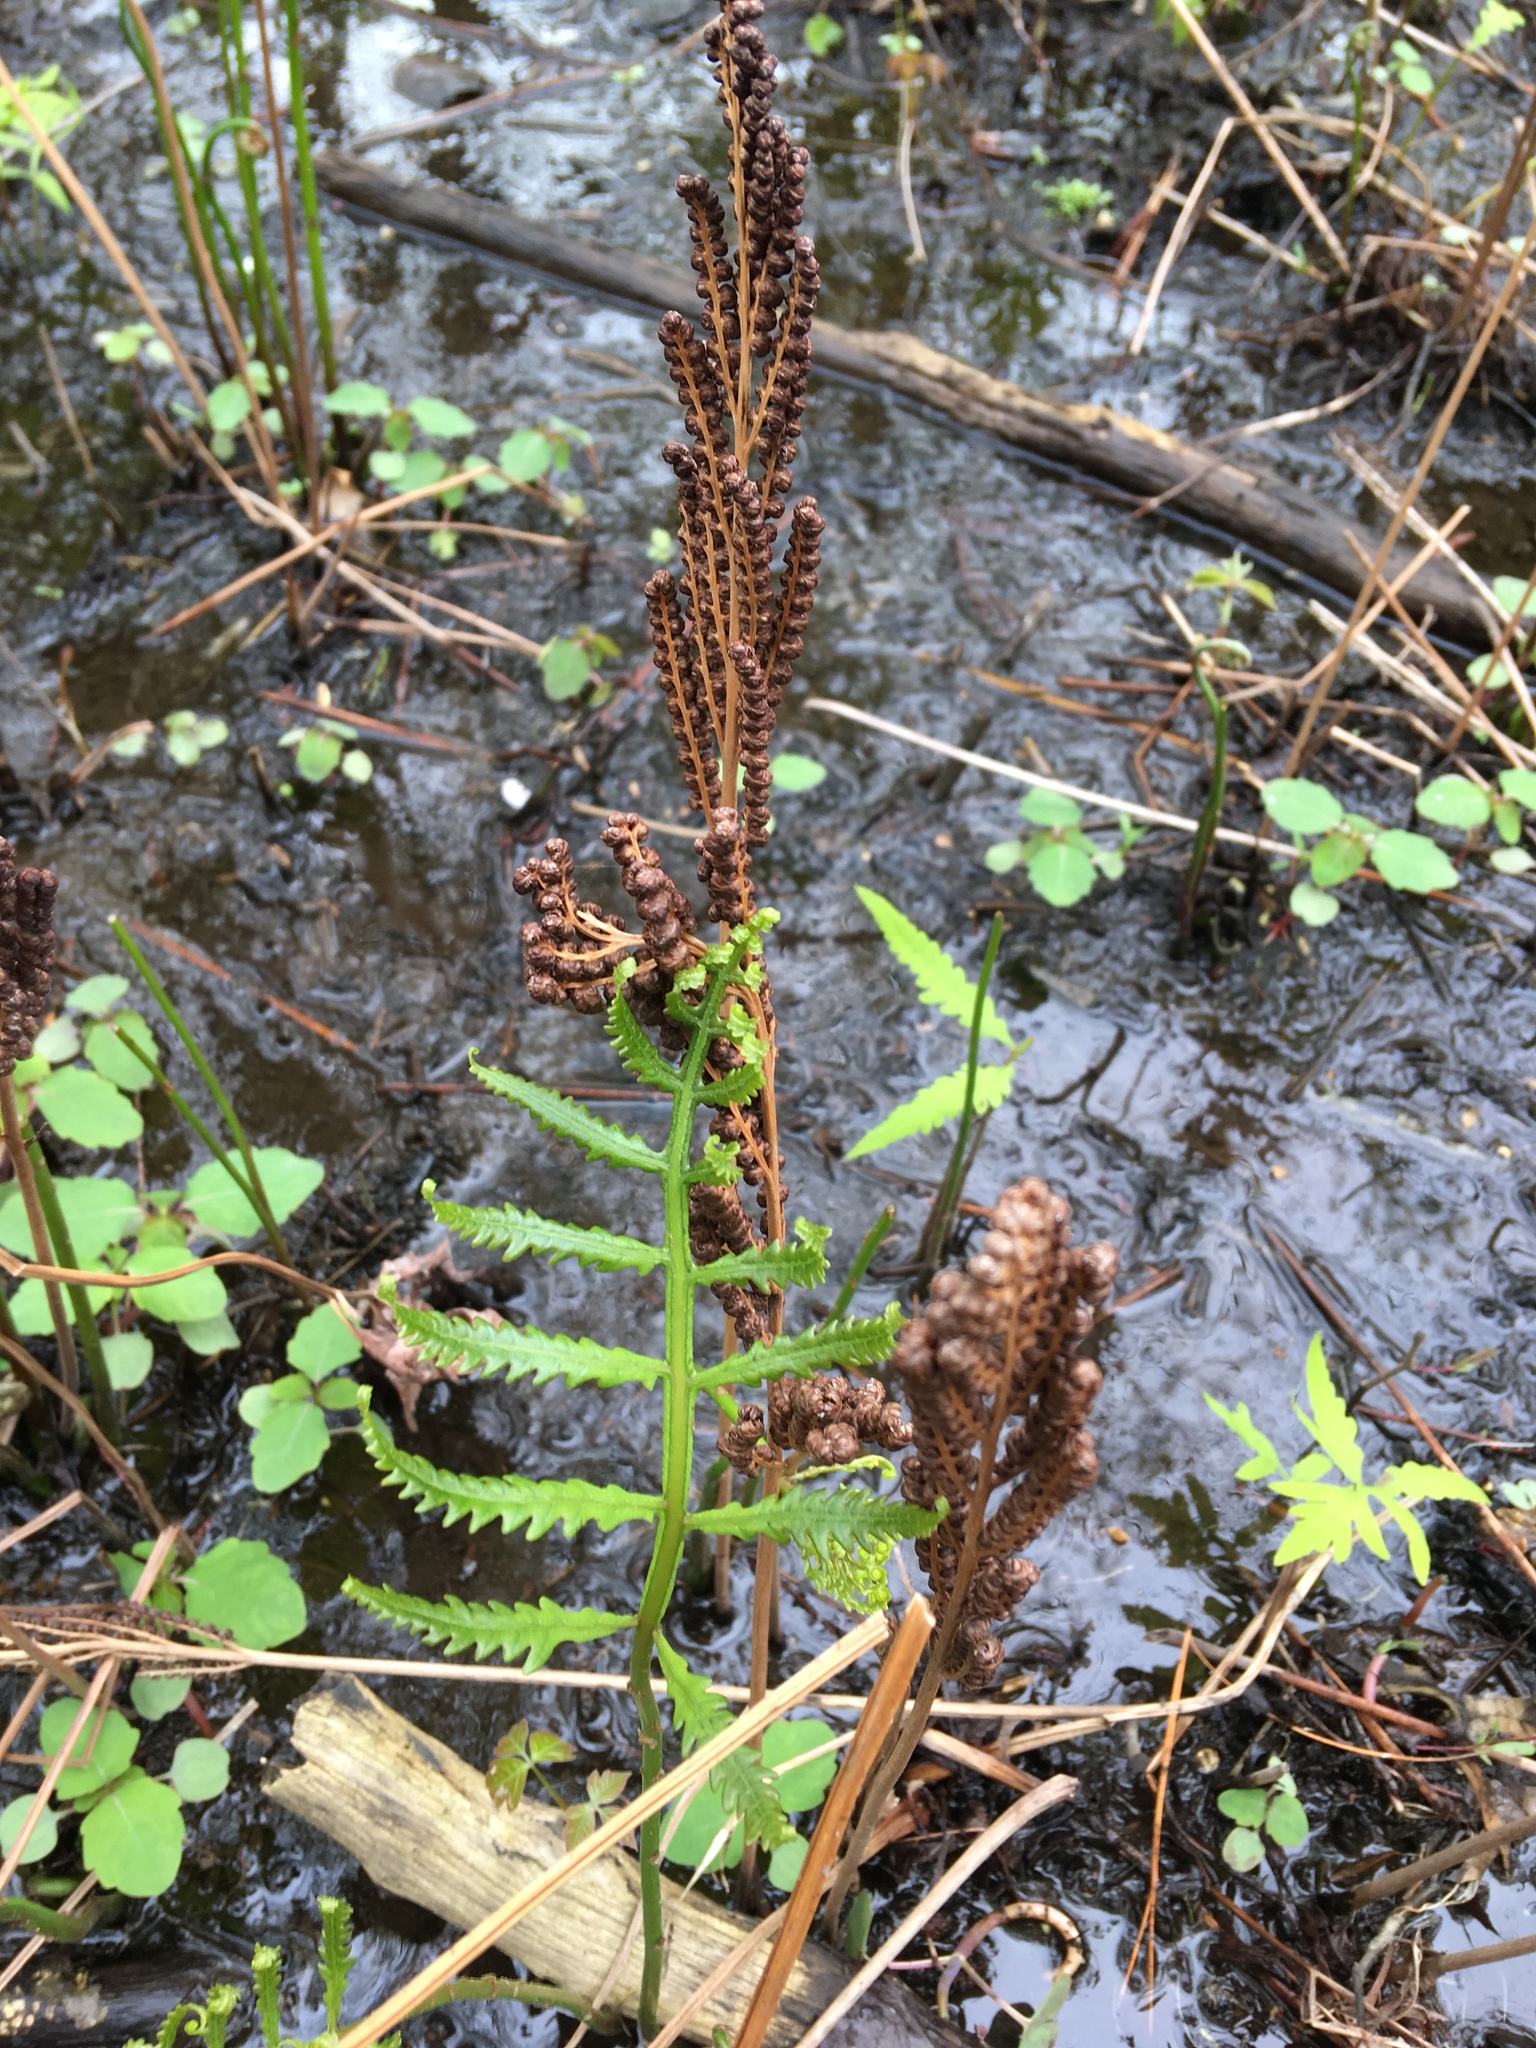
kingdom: Plantae
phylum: Tracheophyta
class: Polypodiopsida
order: Polypodiales
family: Onocleaceae
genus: Onoclea
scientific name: Onoclea sensibilis
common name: Sensitive fern
